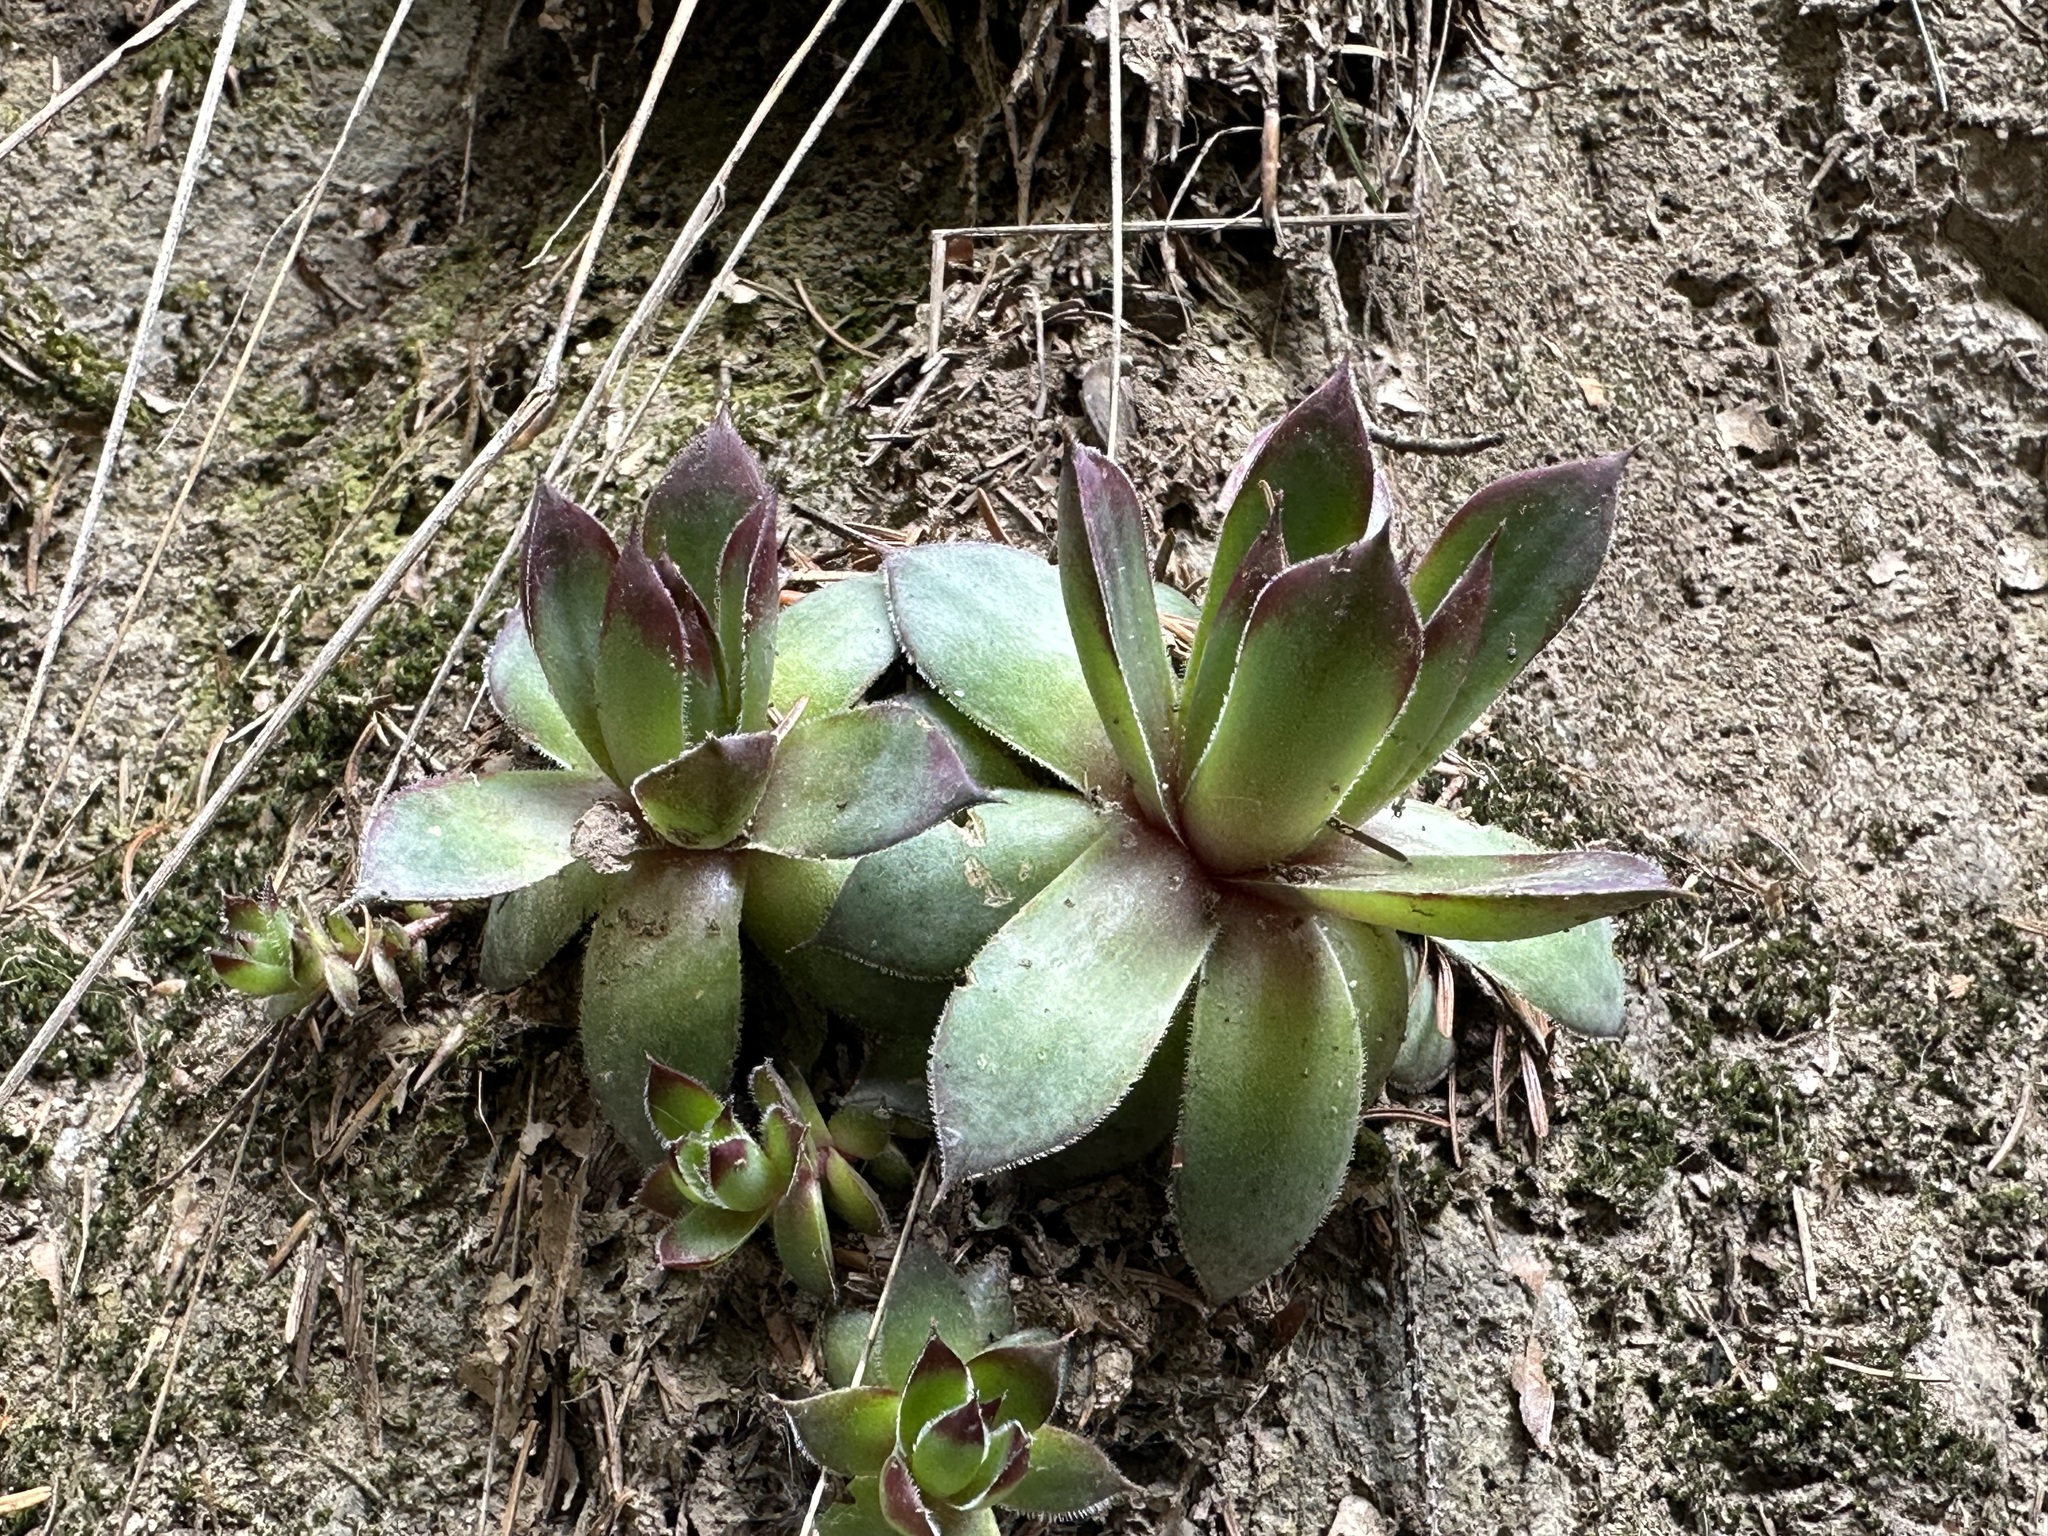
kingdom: Plantae
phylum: Tracheophyta
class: Magnoliopsida
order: Saxifragales
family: Crassulaceae
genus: Sempervivum
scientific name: Sempervivum tectorum
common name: House-leek
